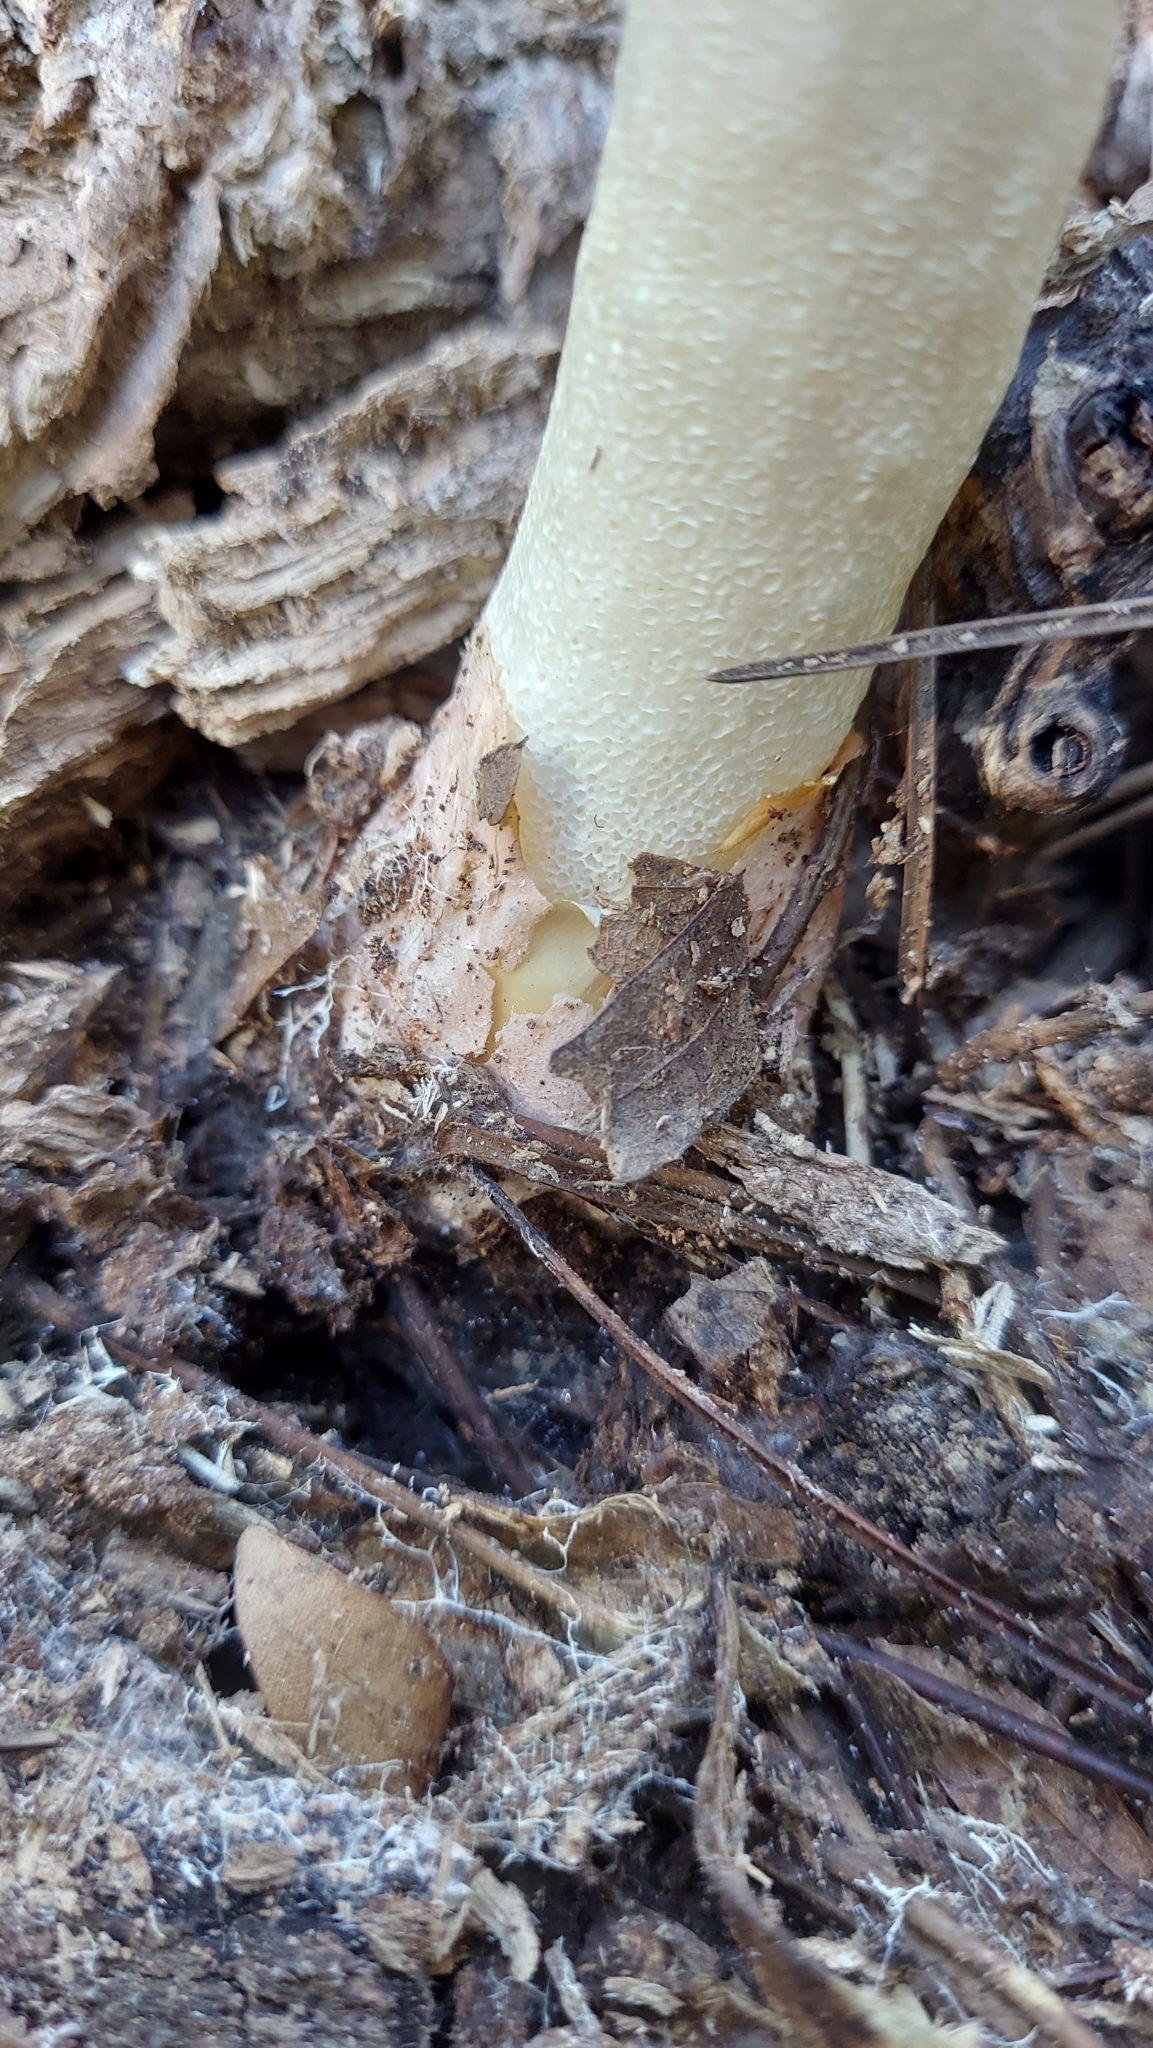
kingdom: Fungi
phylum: Basidiomycota
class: Agaricomycetes
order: Phallales
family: Phallaceae
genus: Phallus
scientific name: Phallus ravenelii
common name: Ravenel's stinkhorn
